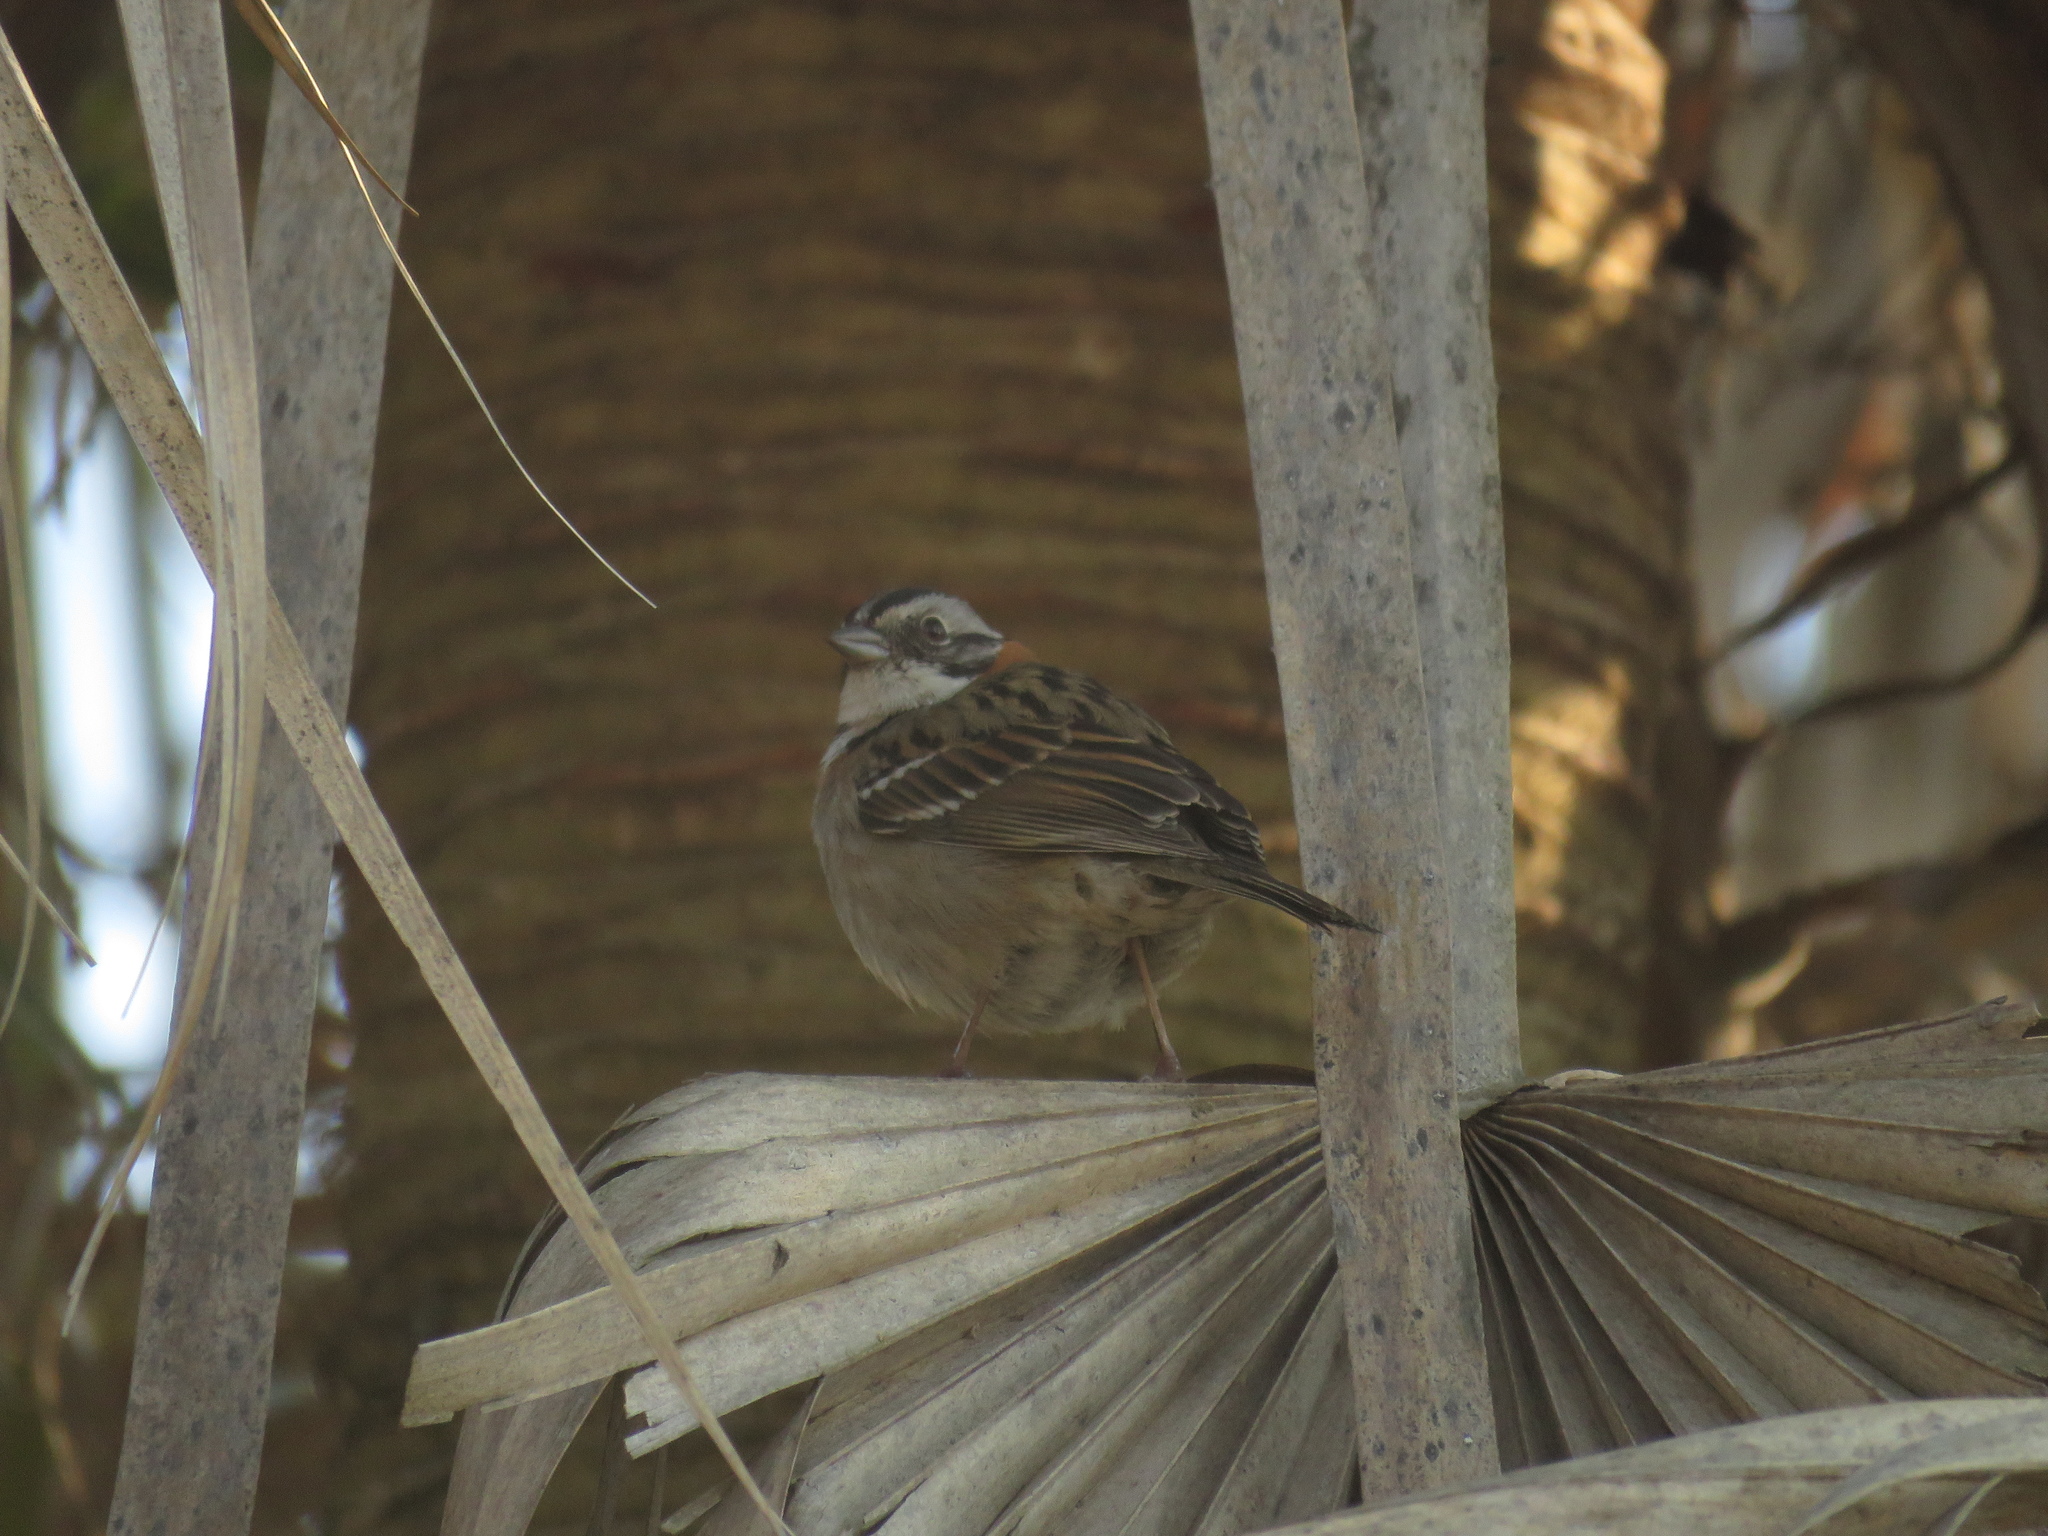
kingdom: Animalia
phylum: Chordata
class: Aves
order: Passeriformes
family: Passerellidae
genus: Zonotrichia
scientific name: Zonotrichia capensis
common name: Rufous-collared sparrow
